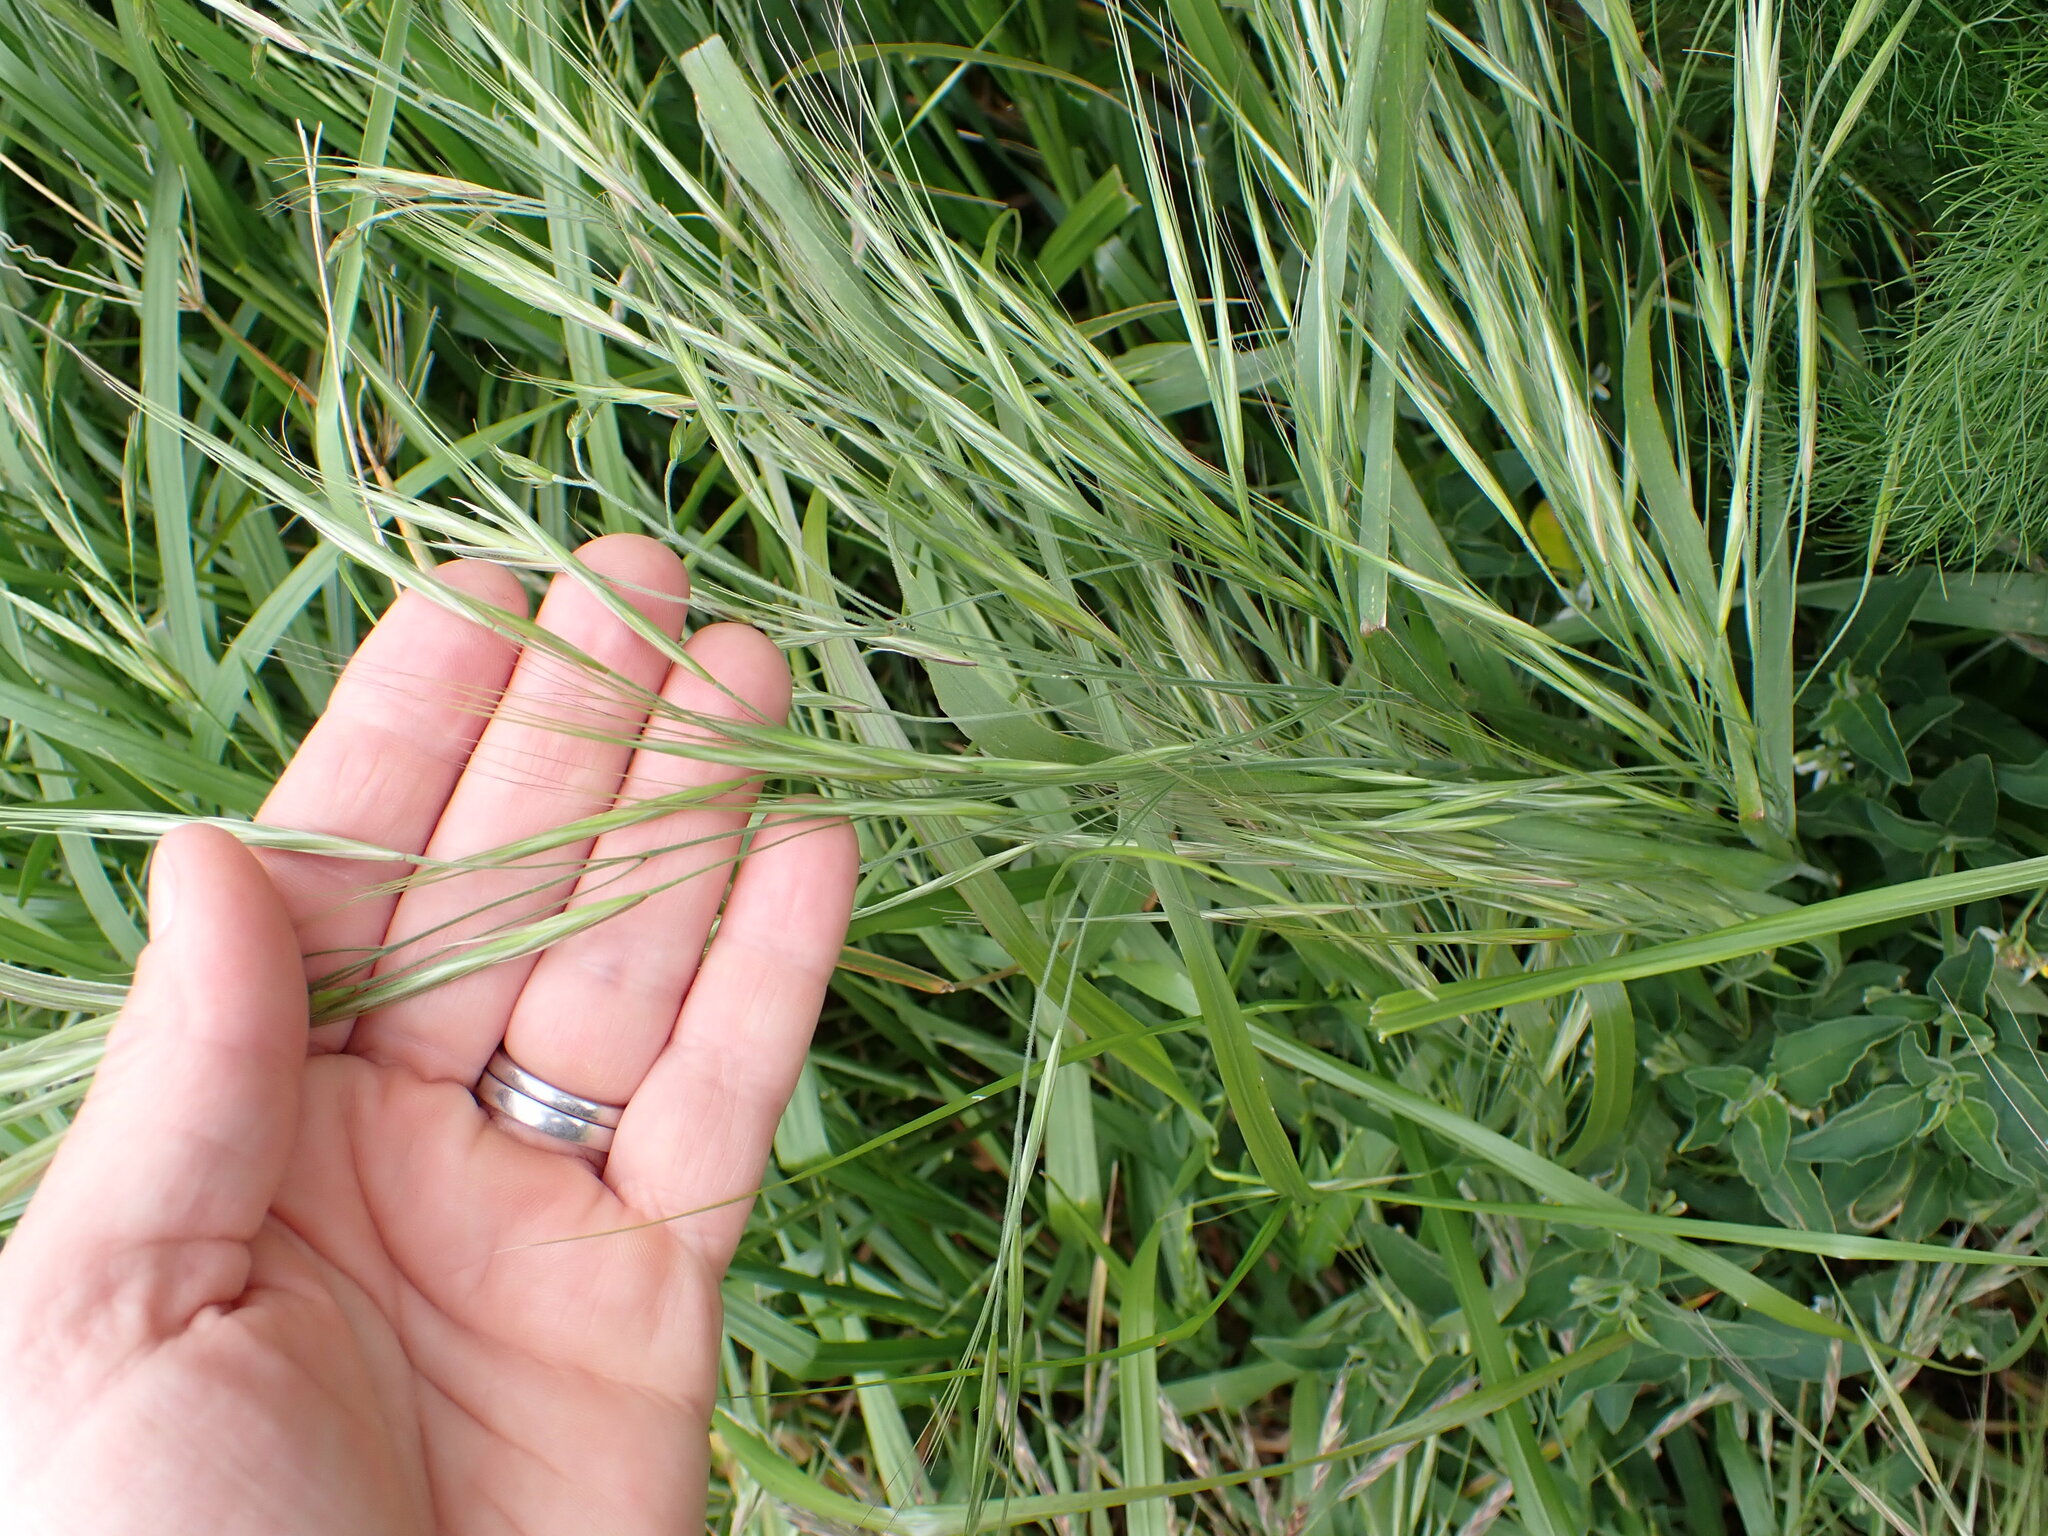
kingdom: Plantae
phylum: Tracheophyta
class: Liliopsida
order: Poales
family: Poaceae
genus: Bromus
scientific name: Bromus diandrus
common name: Ripgut brome
